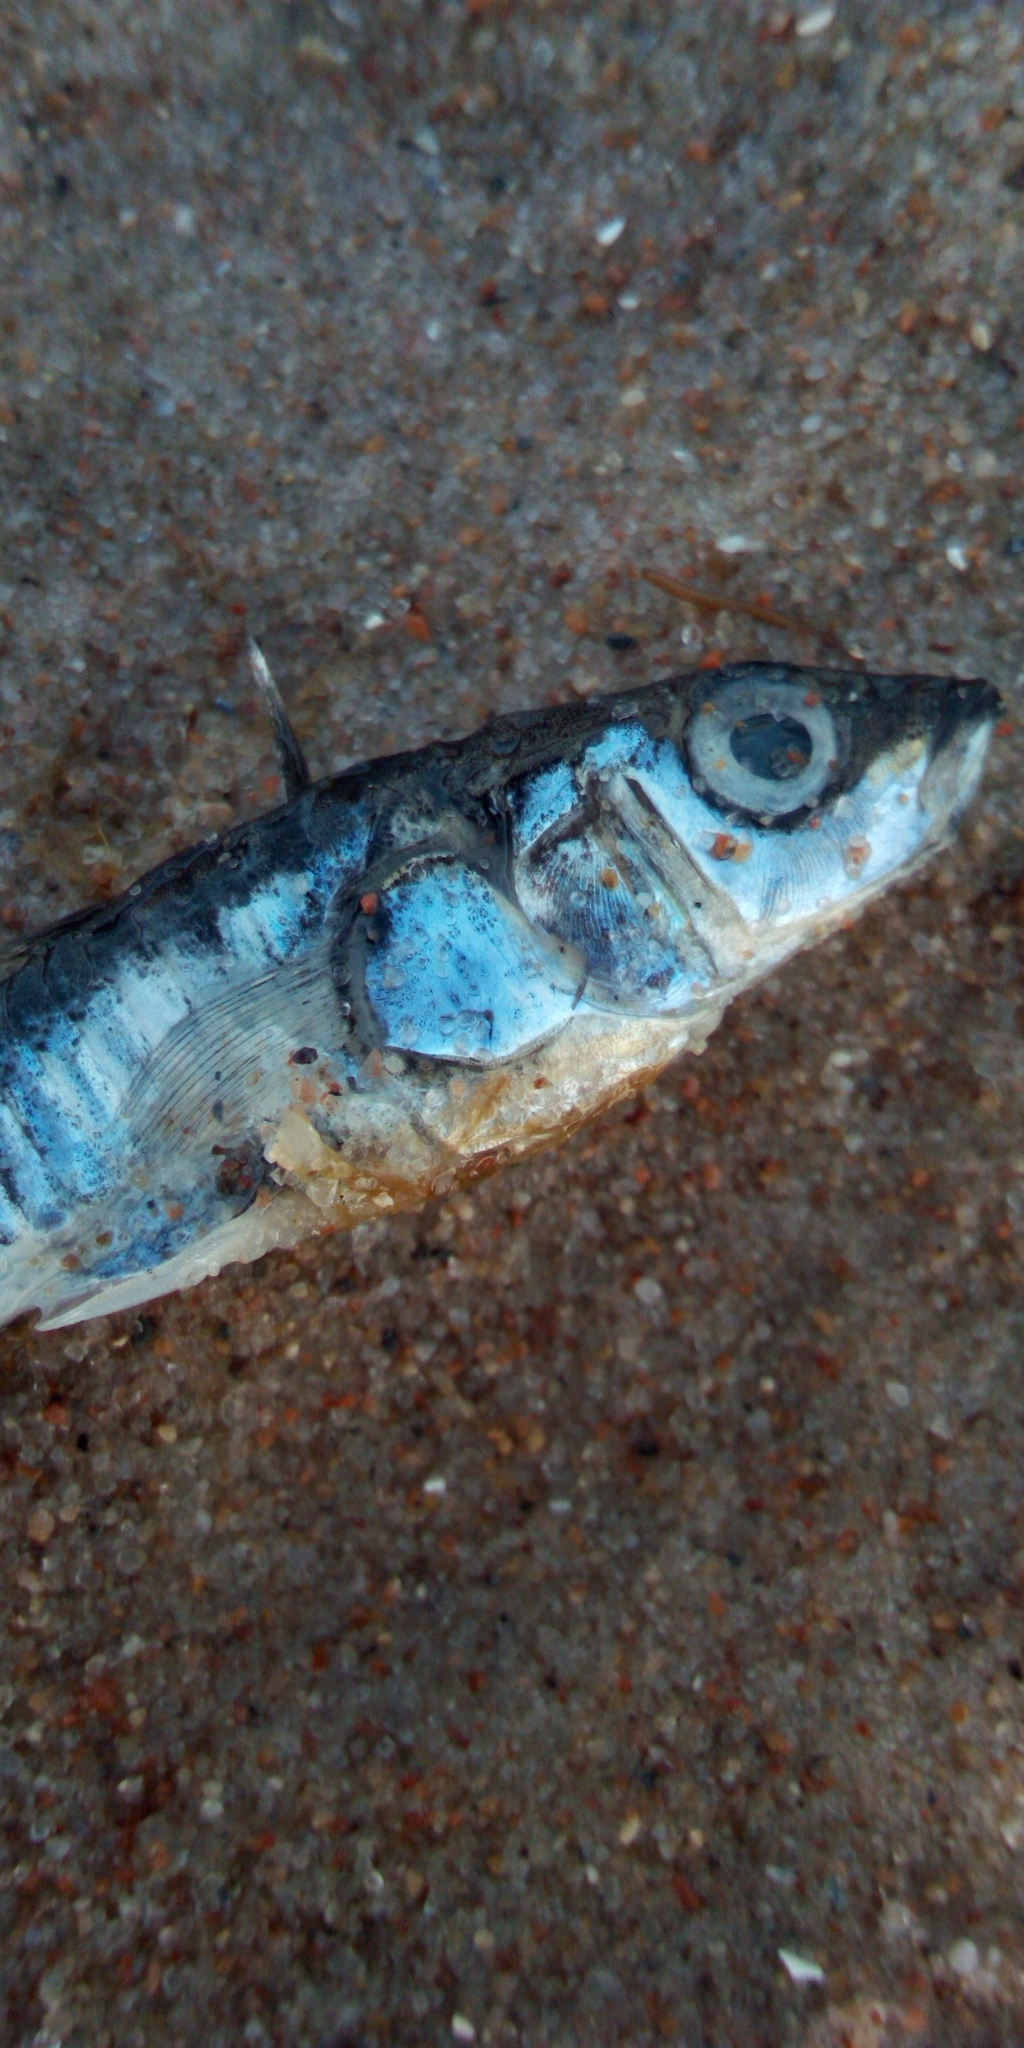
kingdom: Animalia
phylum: Chordata
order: Gasterosteiformes
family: Gasterosteidae
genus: Gasterosteus
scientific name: Gasterosteus aculeatus
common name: Three-spined stickleback
